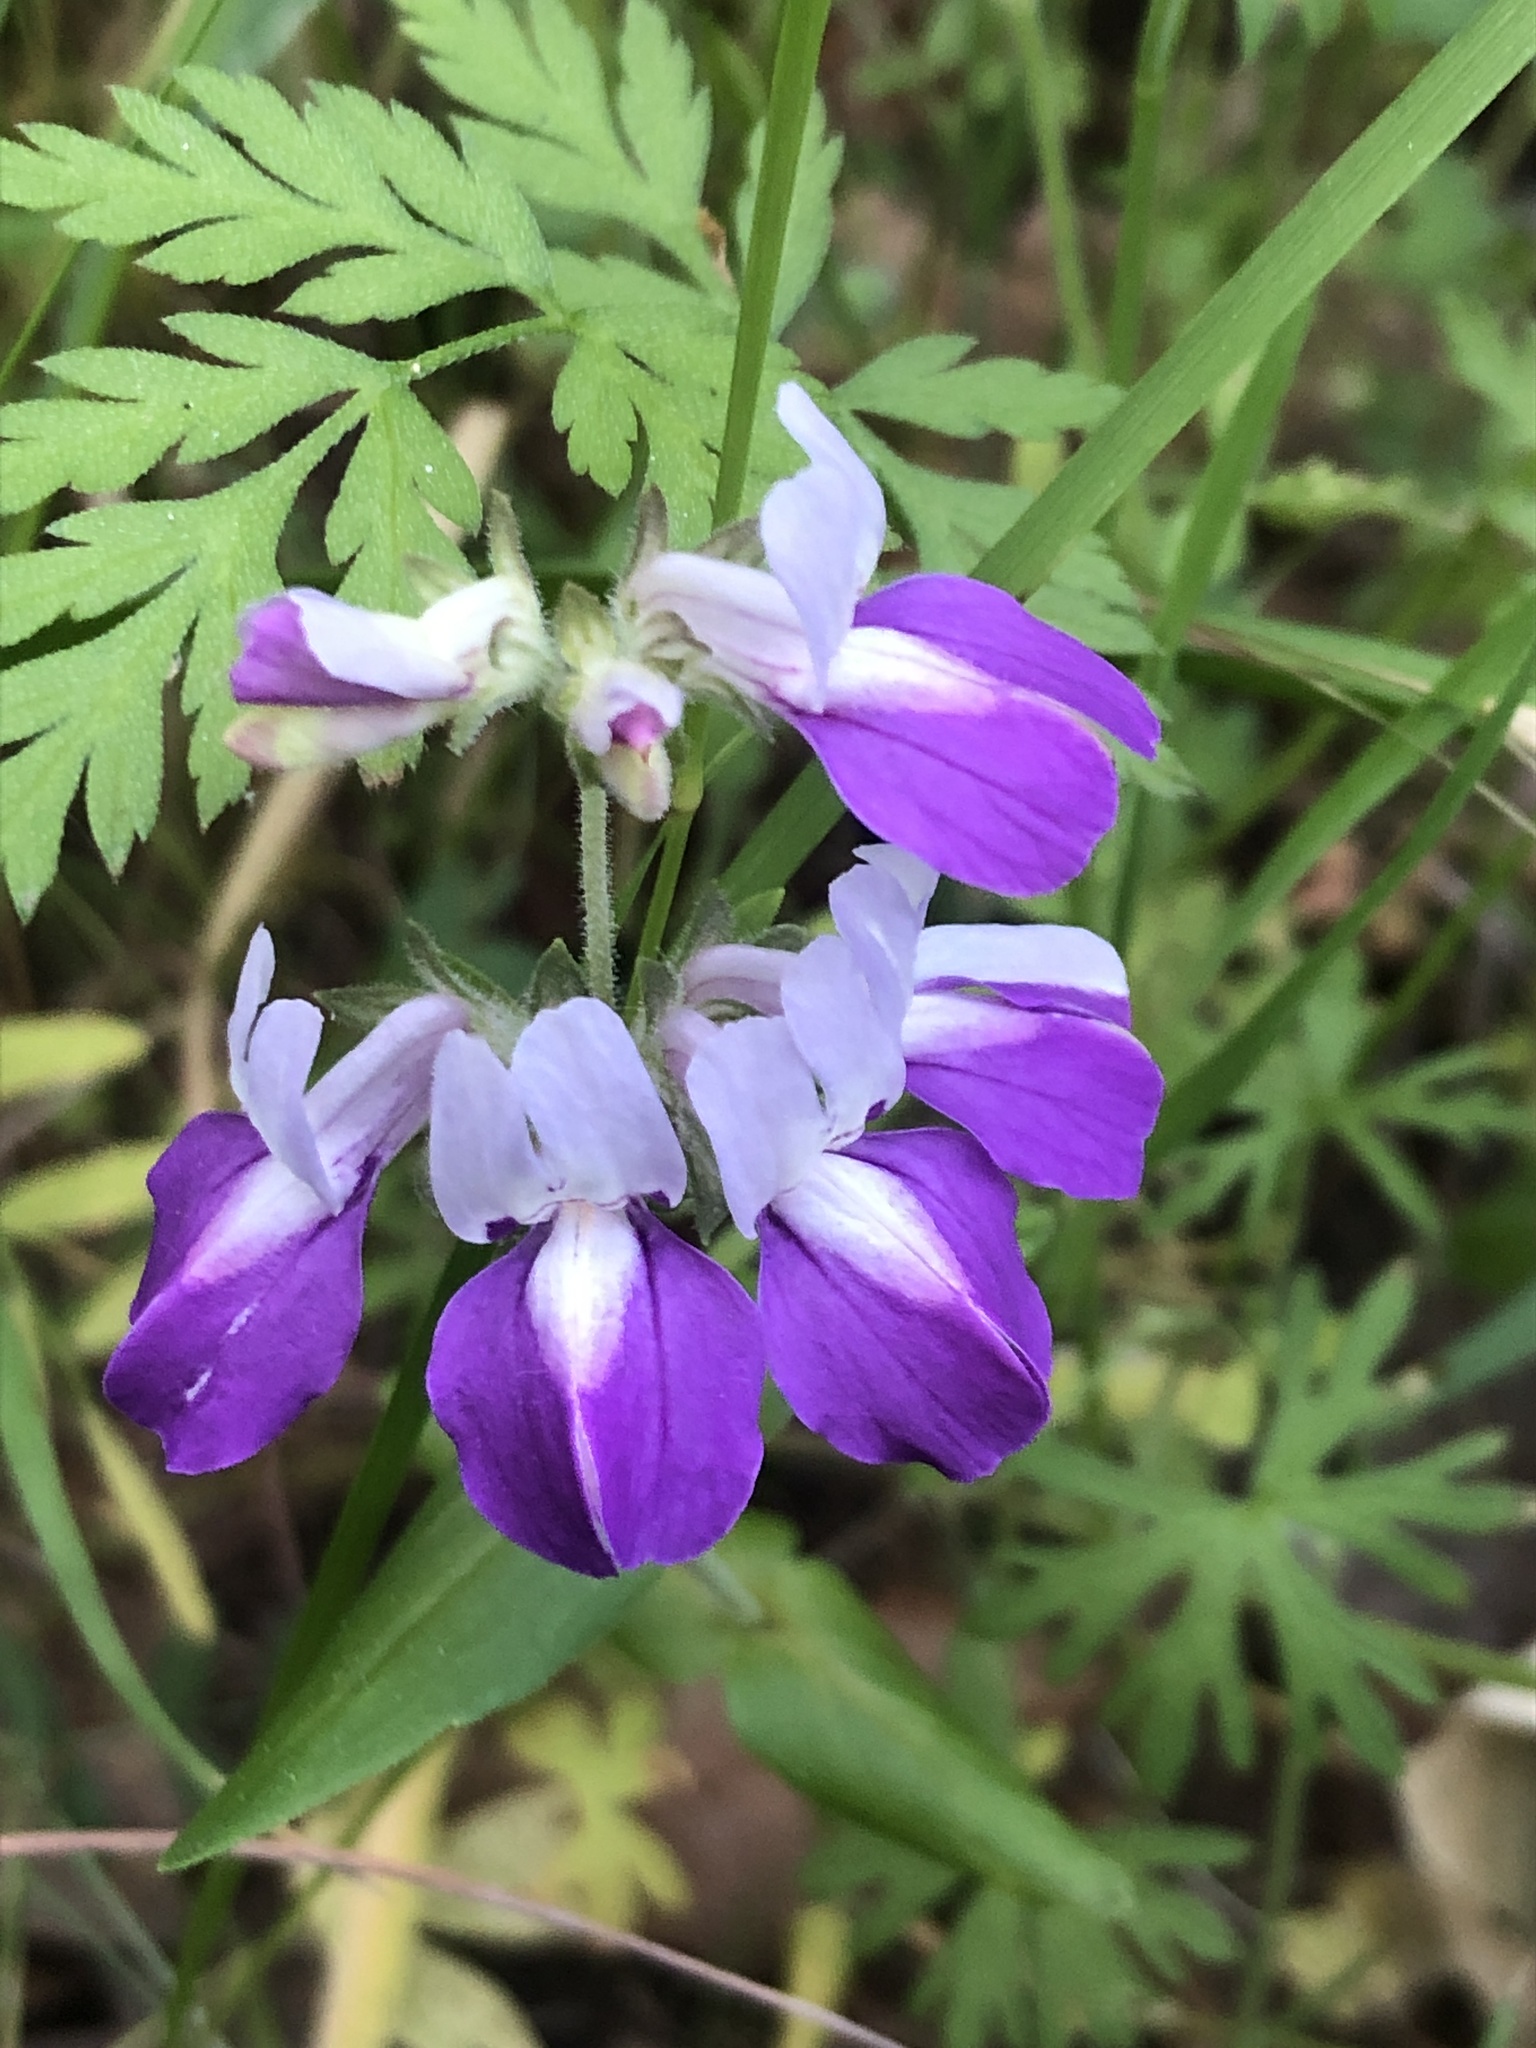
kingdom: Plantae
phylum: Tracheophyta
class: Magnoliopsida
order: Lamiales
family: Plantaginaceae
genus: Collinsia
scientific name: Collinsia heterophylla
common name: Chinese-houses
